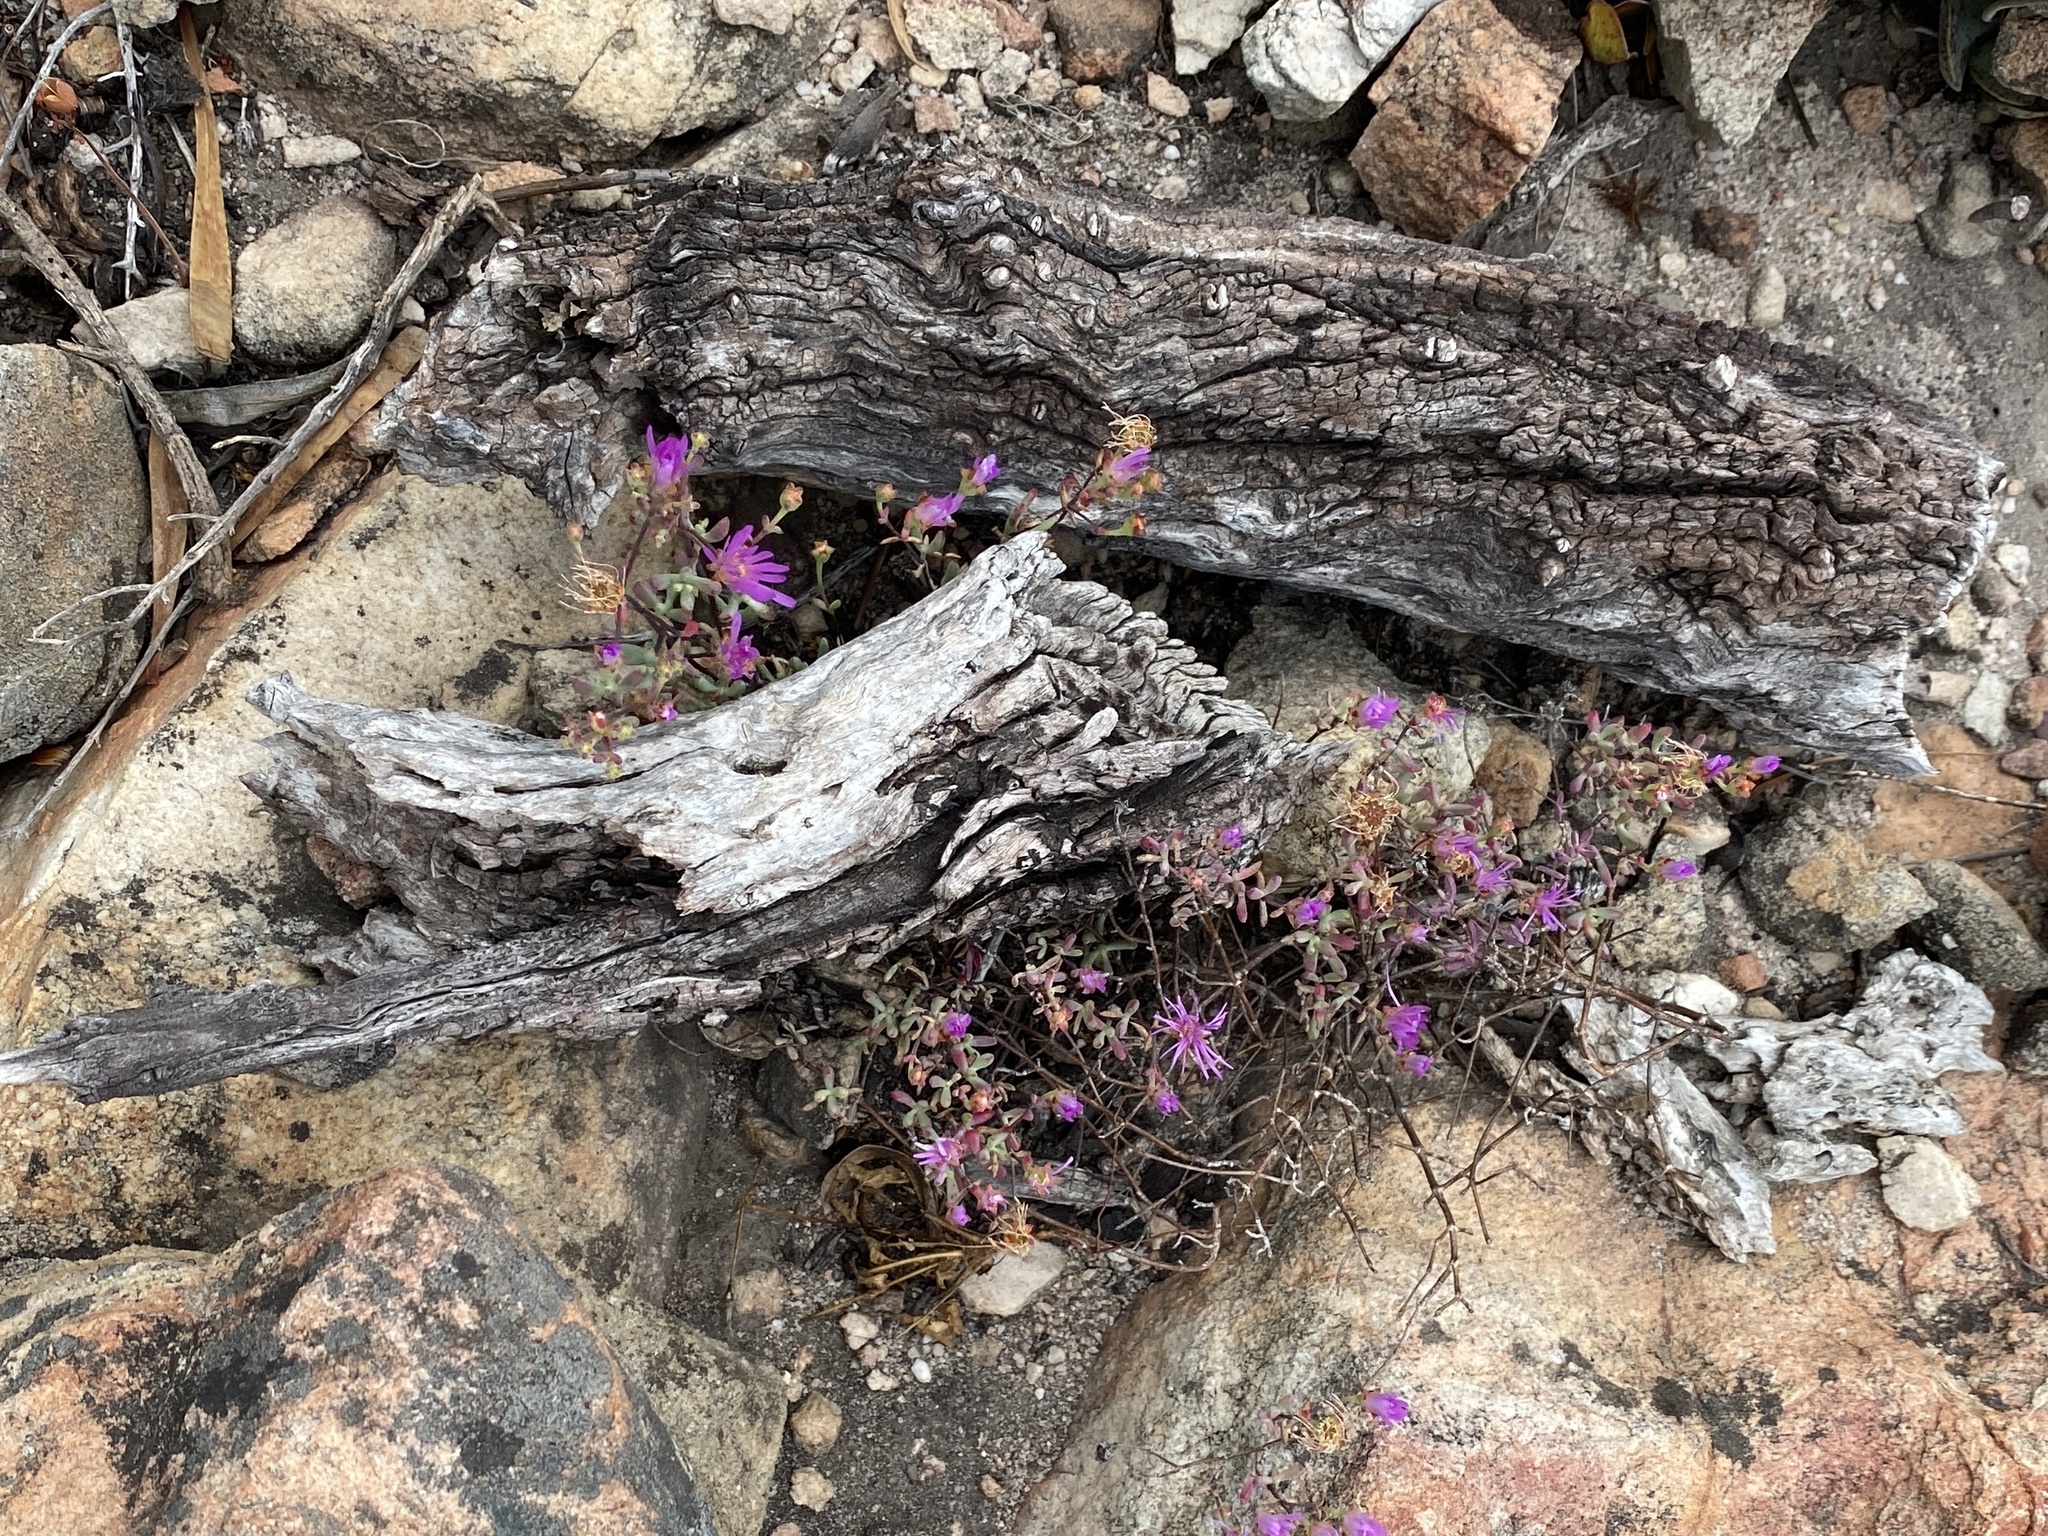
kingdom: Plantae
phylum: Tracheophyta
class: Magnoliopsida
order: Caryophyllales
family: Aizoaceae
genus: Lampranthus
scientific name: Lampranthus falcatus
